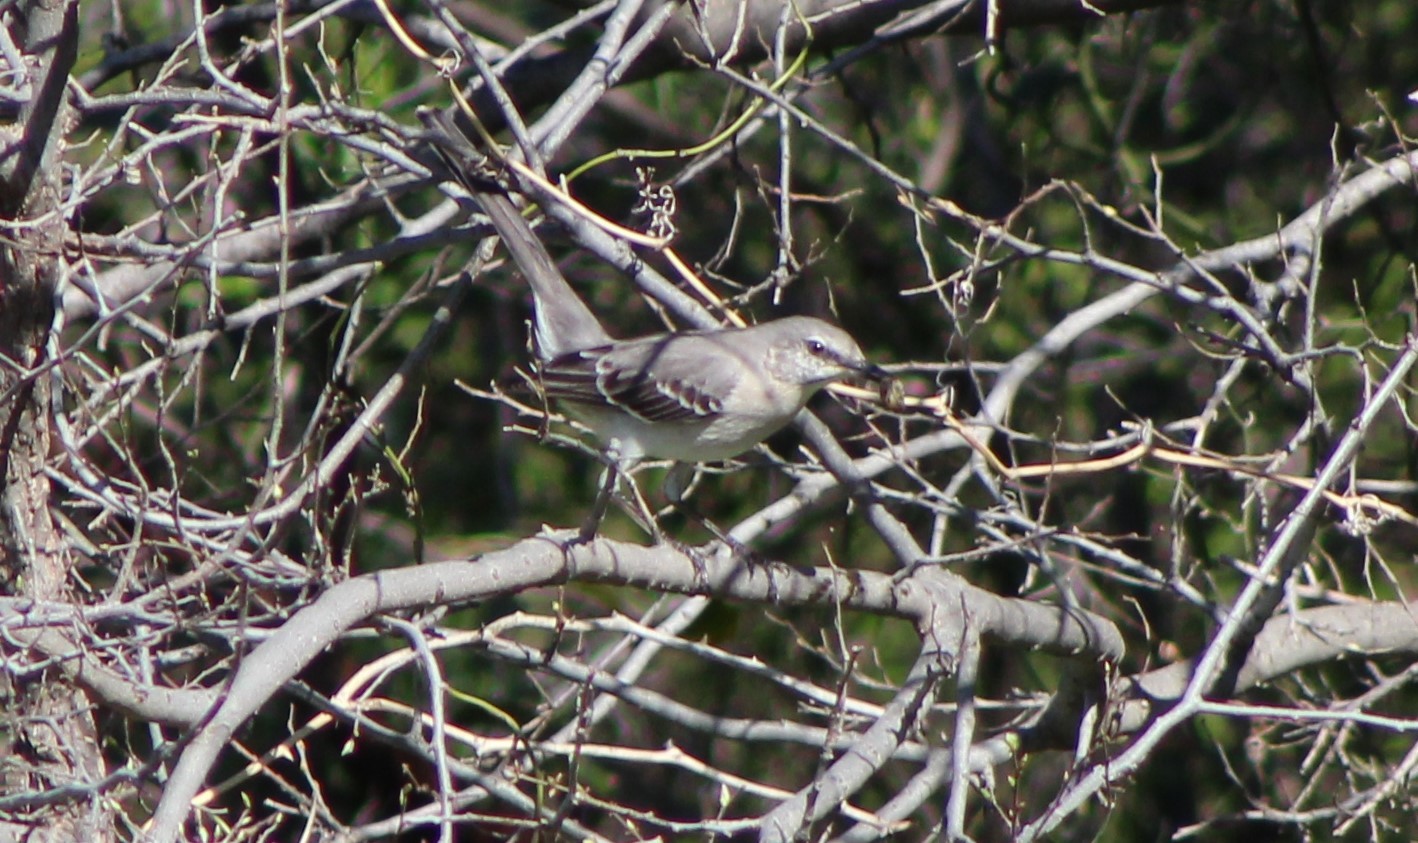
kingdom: Animalia
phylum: Chordata
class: Aves
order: Passeriformes
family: Mimidae
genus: Mimus
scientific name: Mimus polyglottos
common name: Northern mockingbird
